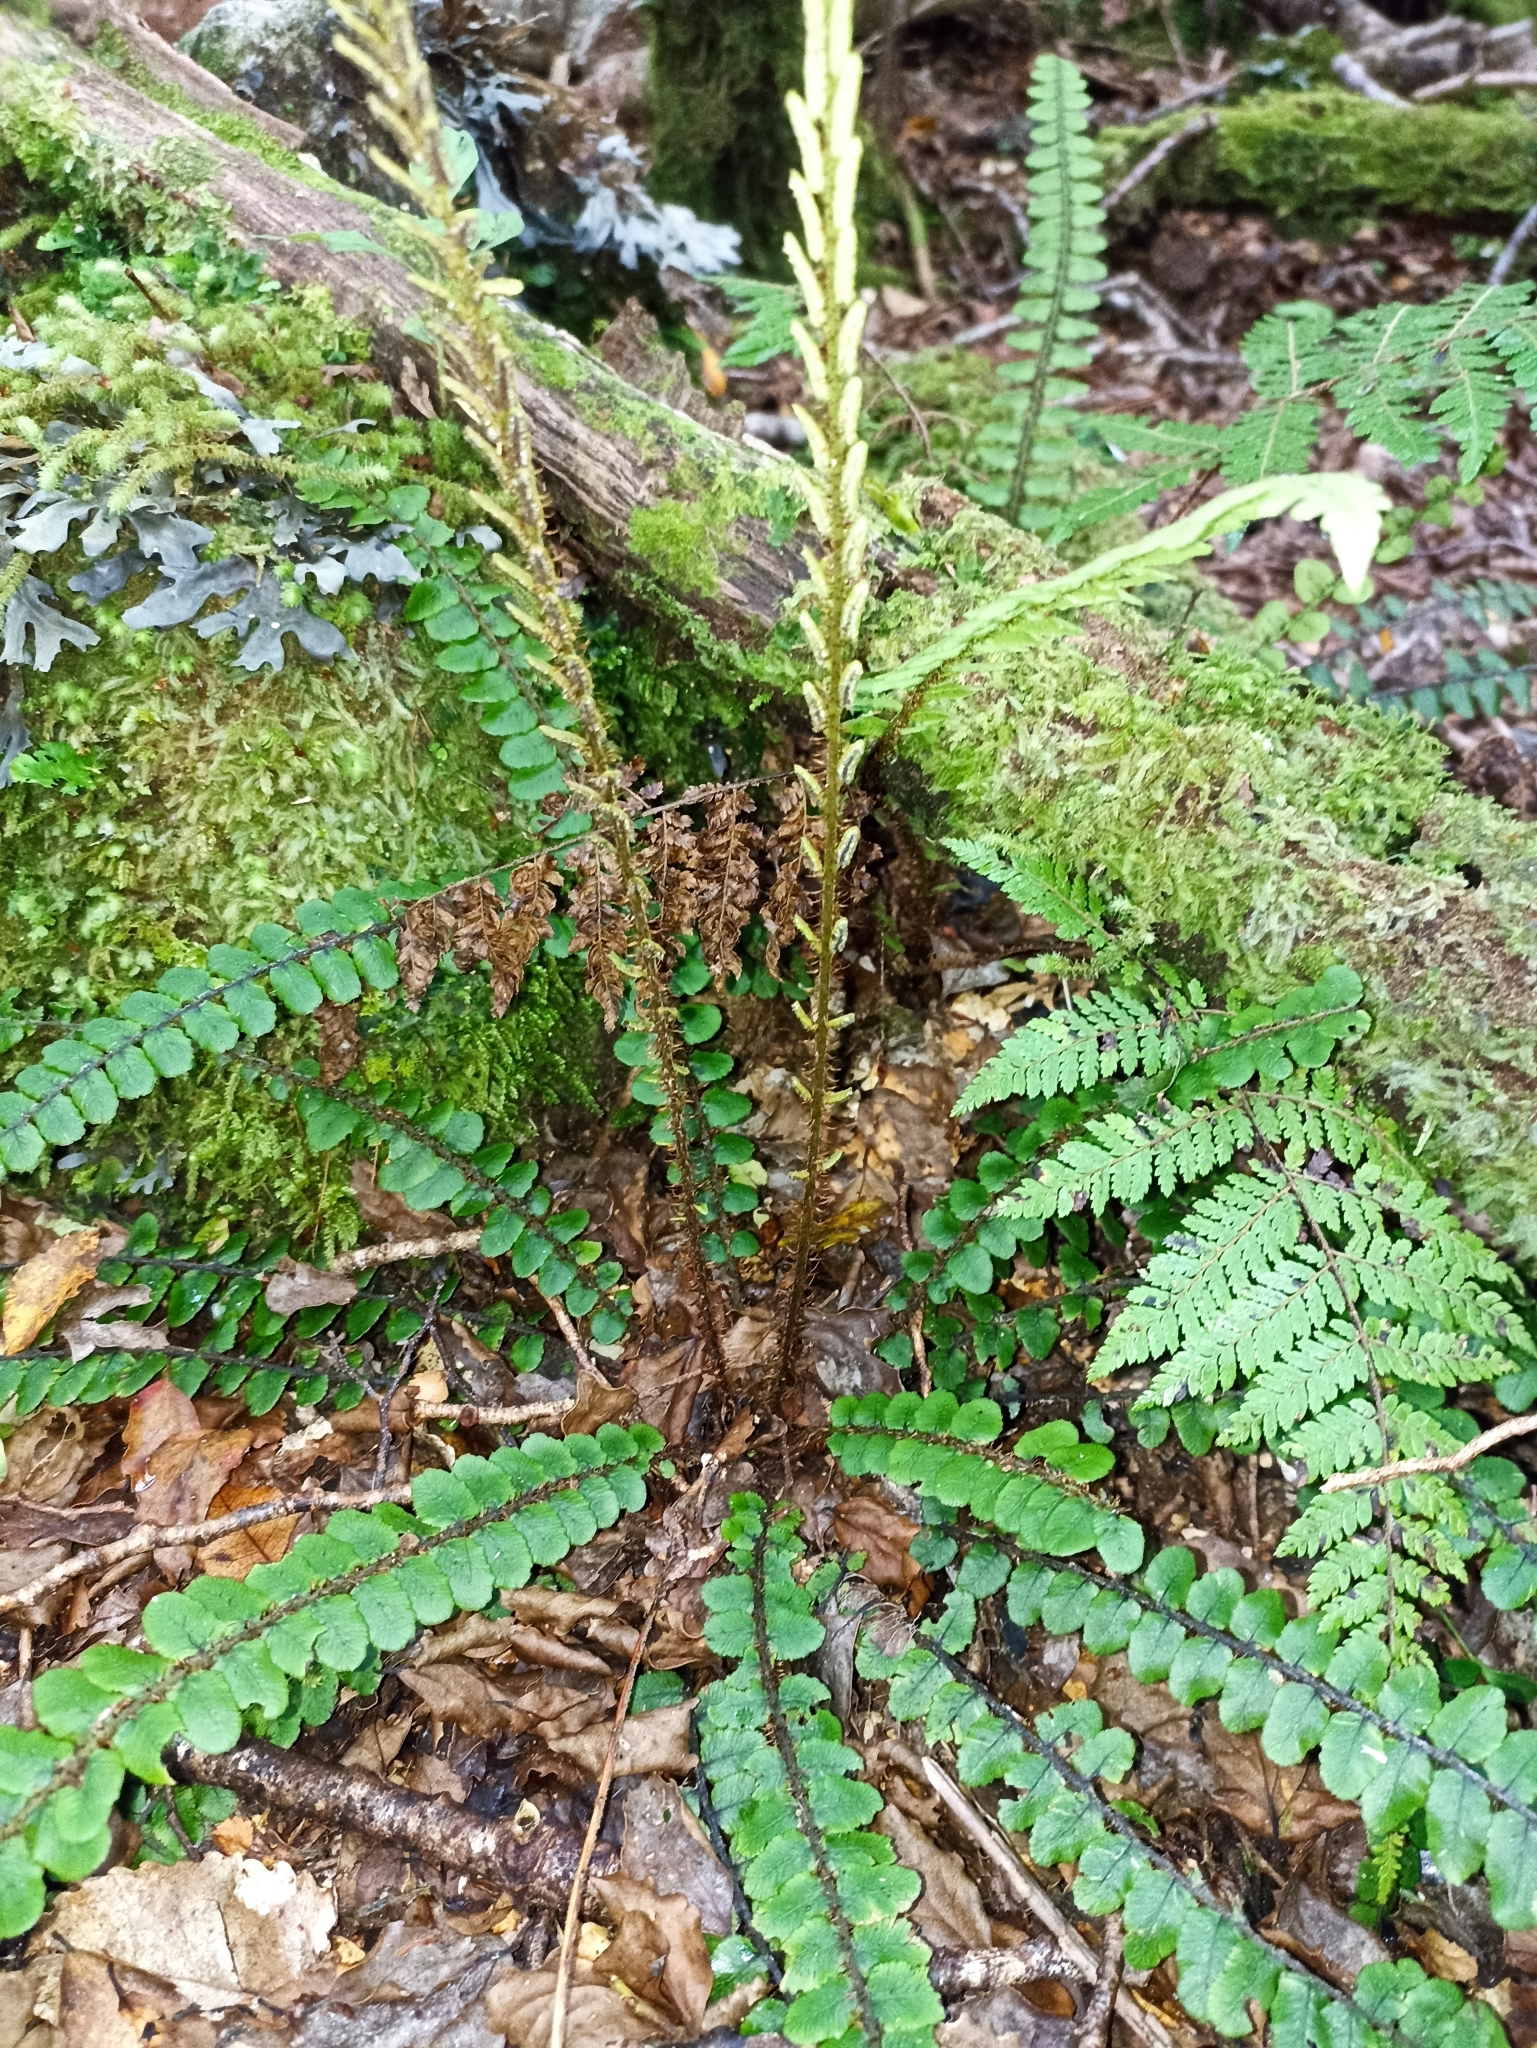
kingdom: Plantae
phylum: Tracheophyta
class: Polypodiopsida
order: Polypodiales
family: Blechnaceae
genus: Cranfillia
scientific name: Cranfillia fluviatilis
